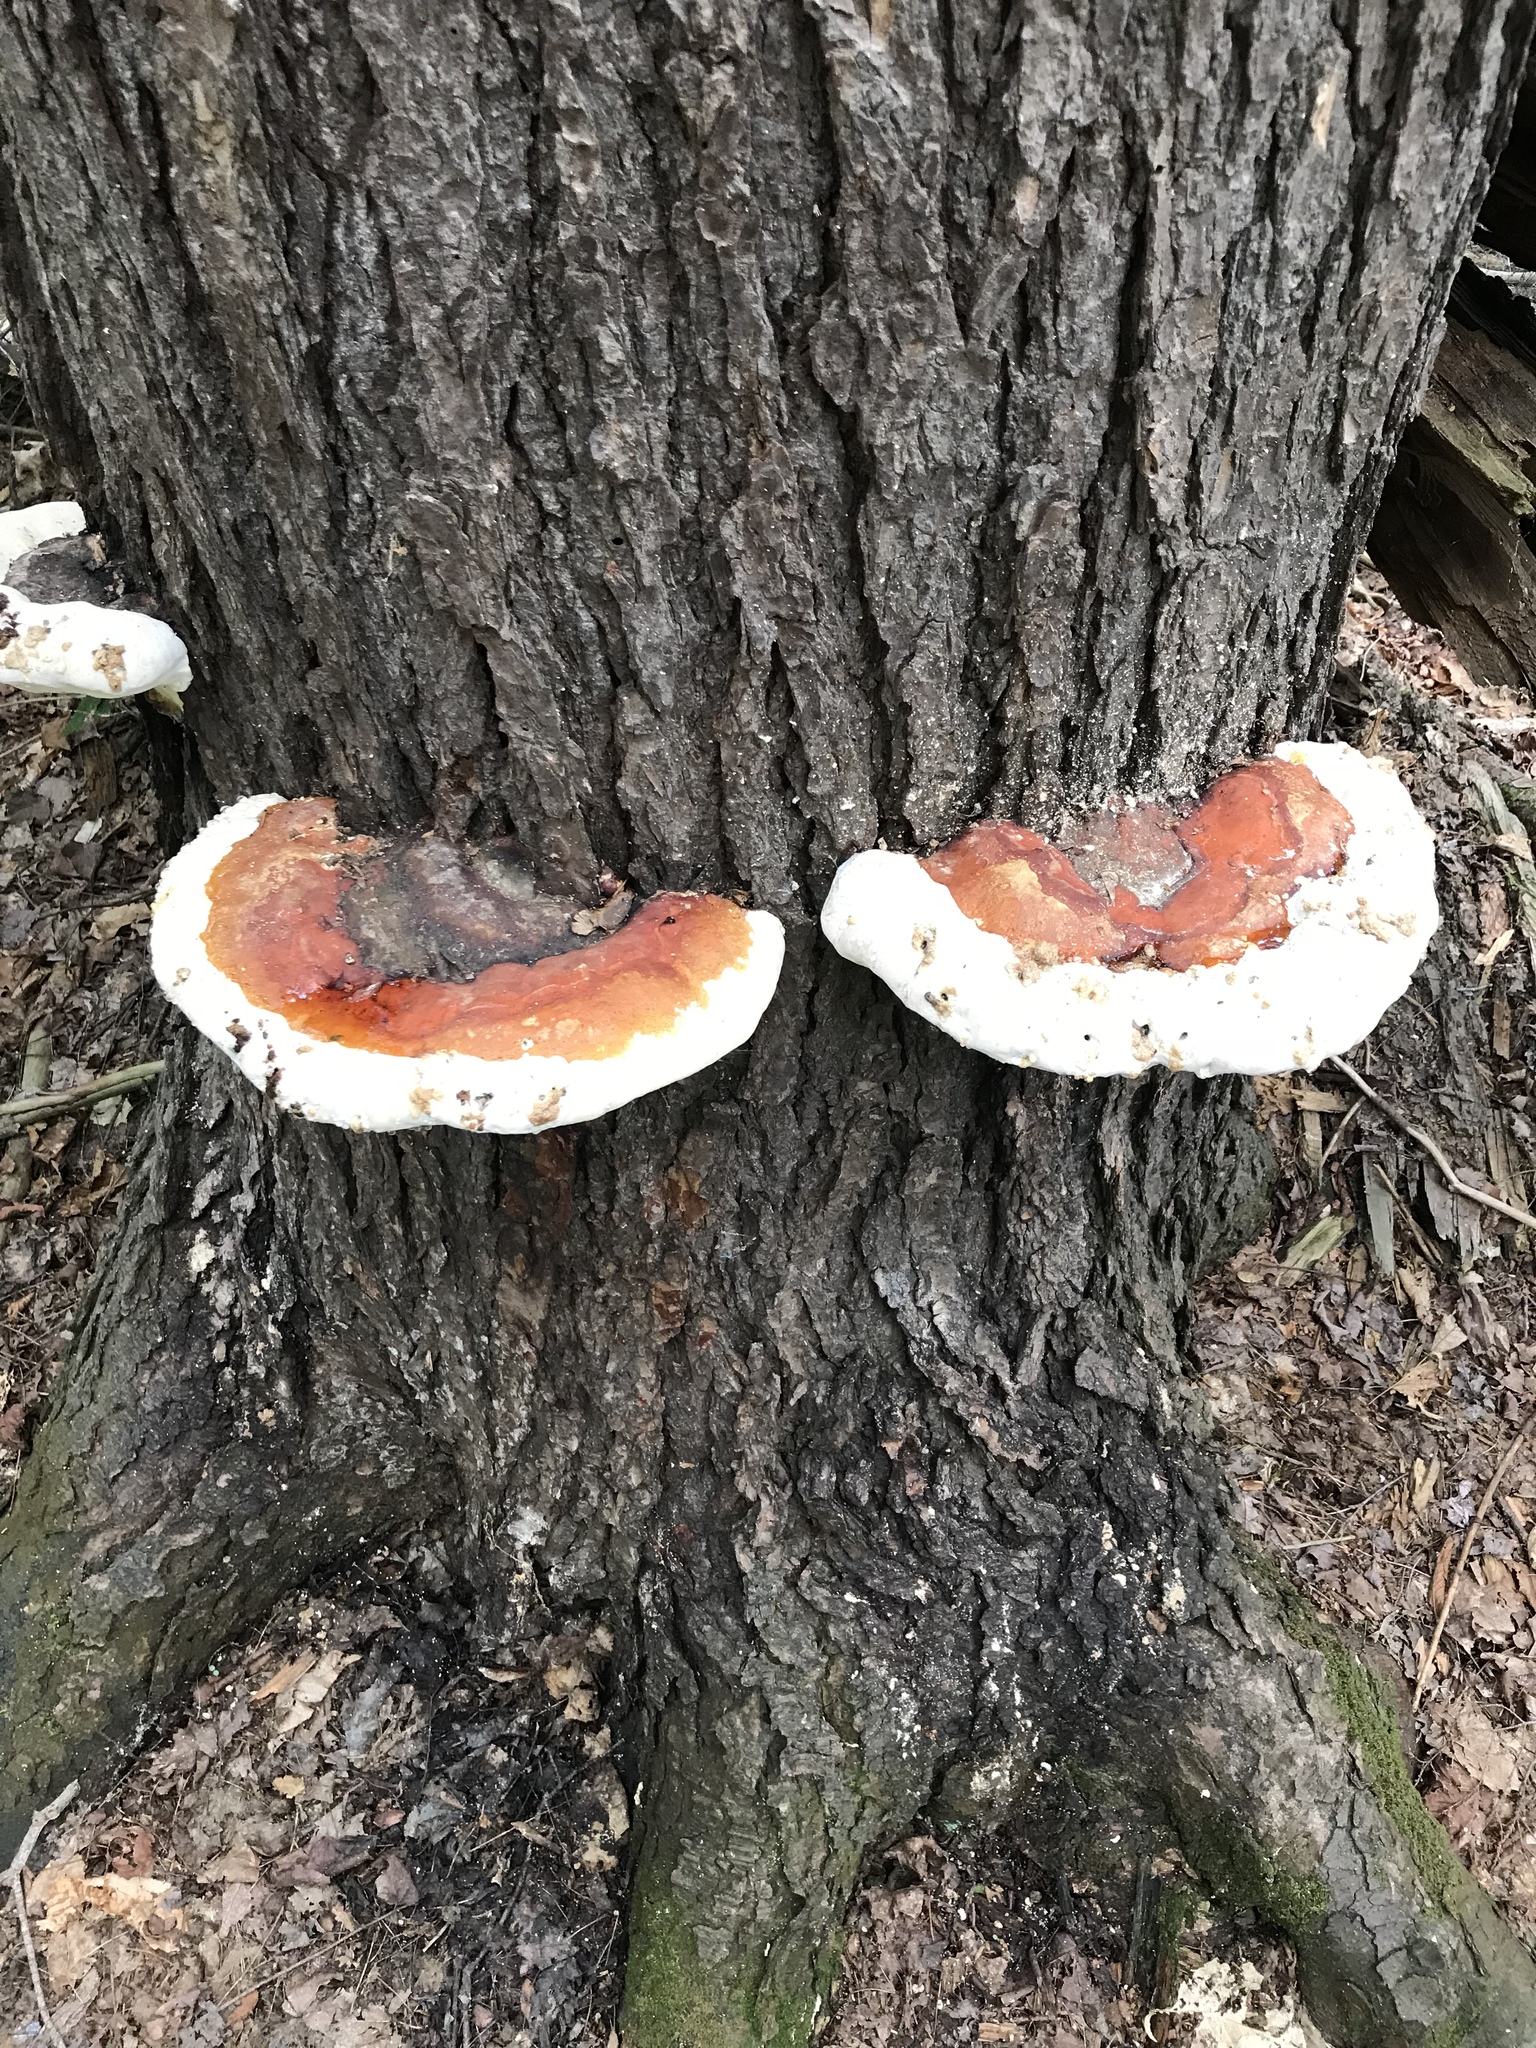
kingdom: Fungi
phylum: Basidiomycota
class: Agaricomycetes
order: Polyporales
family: Fomitopsidaceae
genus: Fomitopsis
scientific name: Fomitopsis mounceae
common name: Northern red belt
